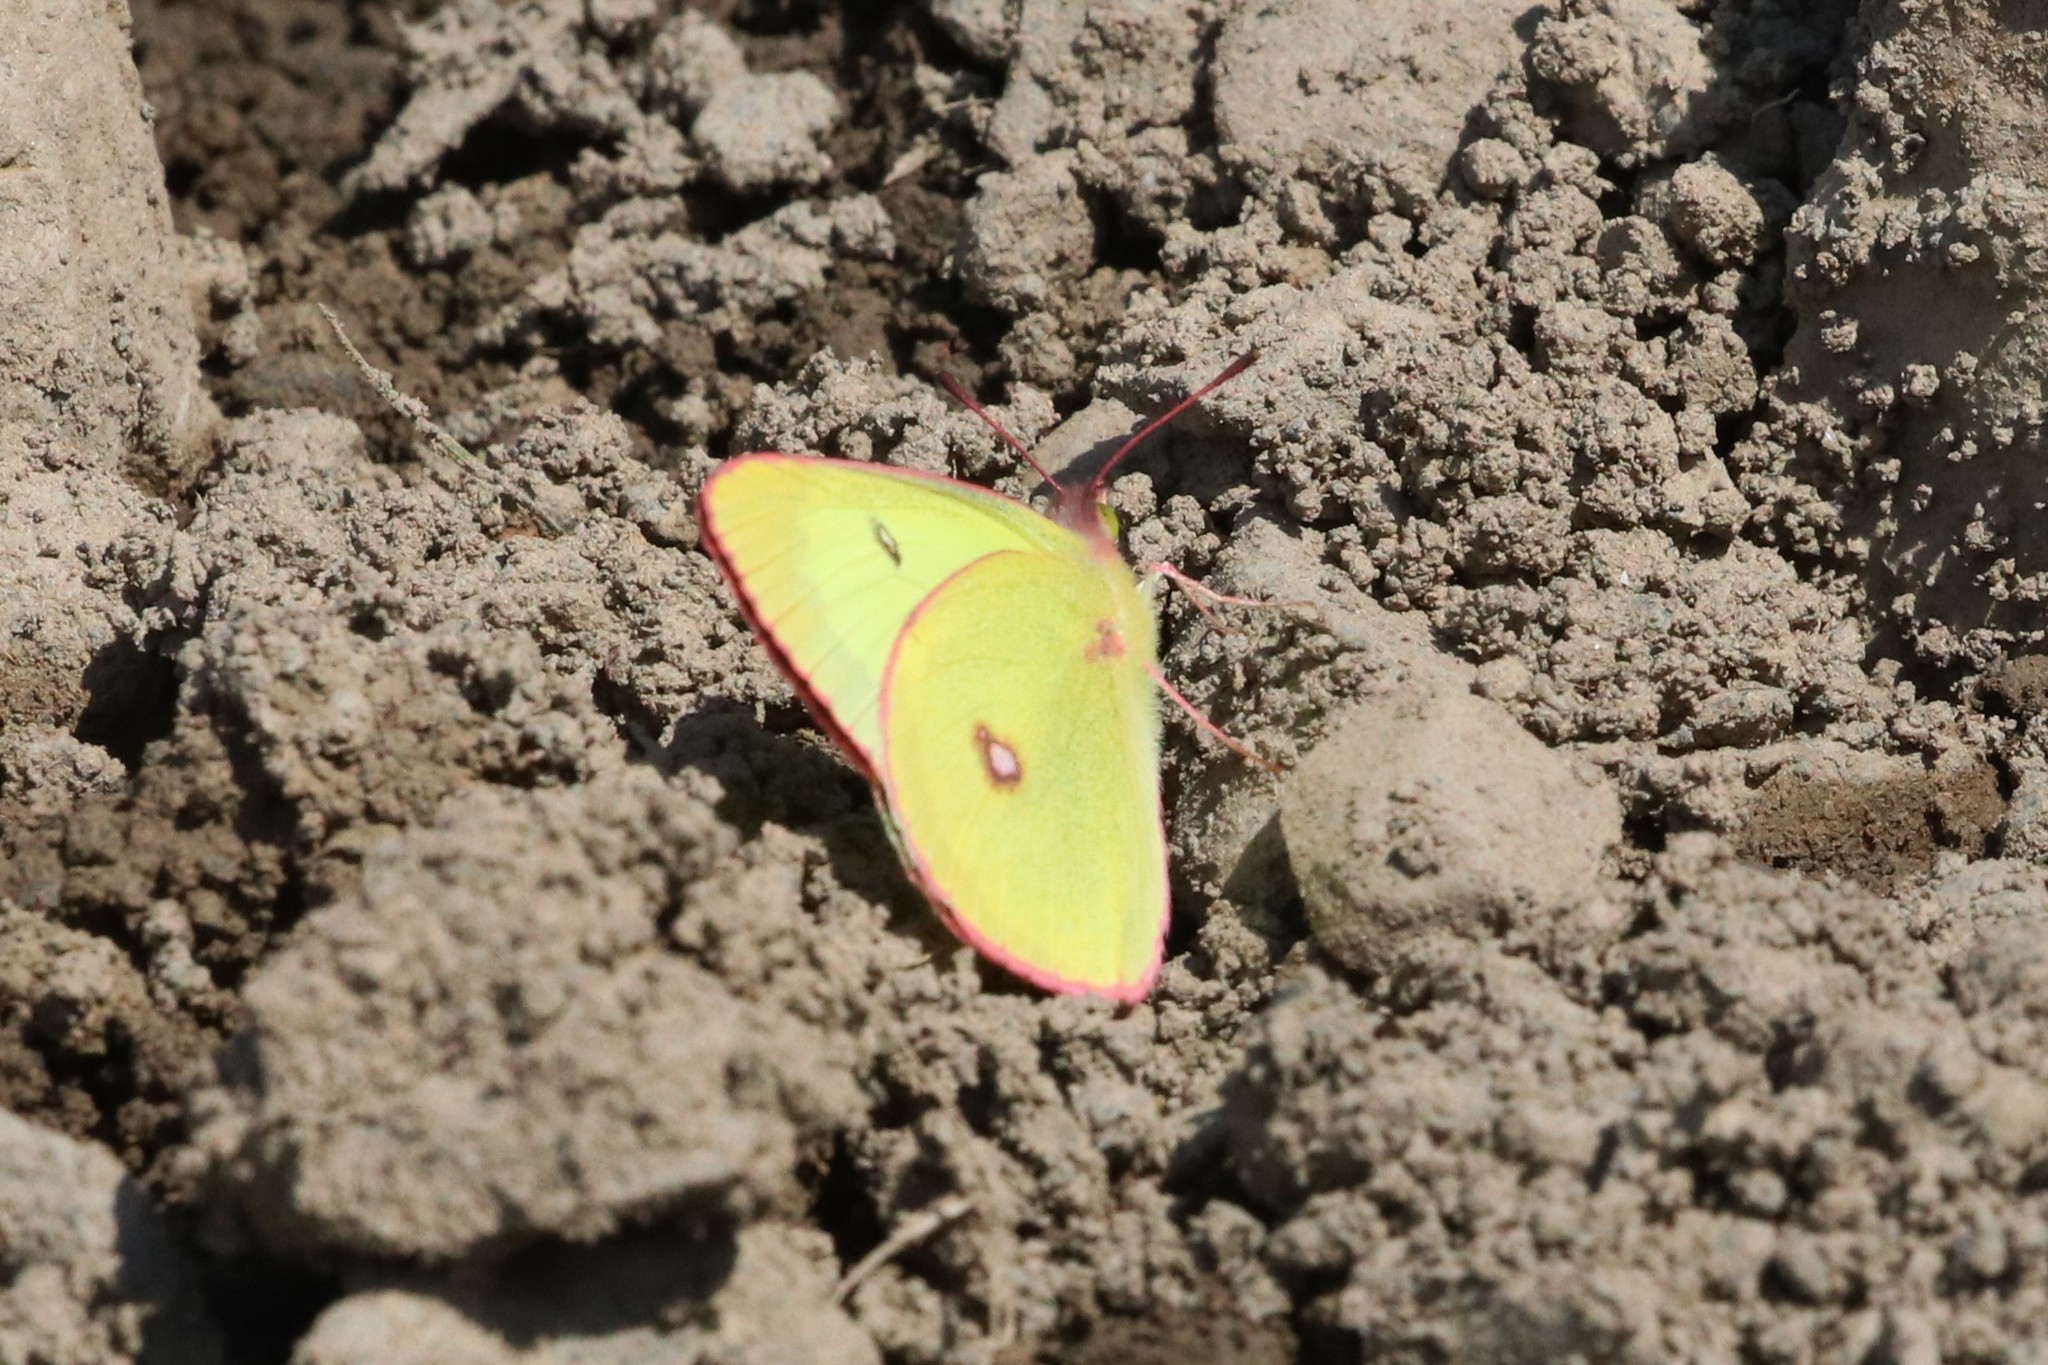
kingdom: Animalia
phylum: Arthropoda
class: Insecta
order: Lepidoptera
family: Pieridae
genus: Colias
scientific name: Colias interior
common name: Pink-edged sulphur
